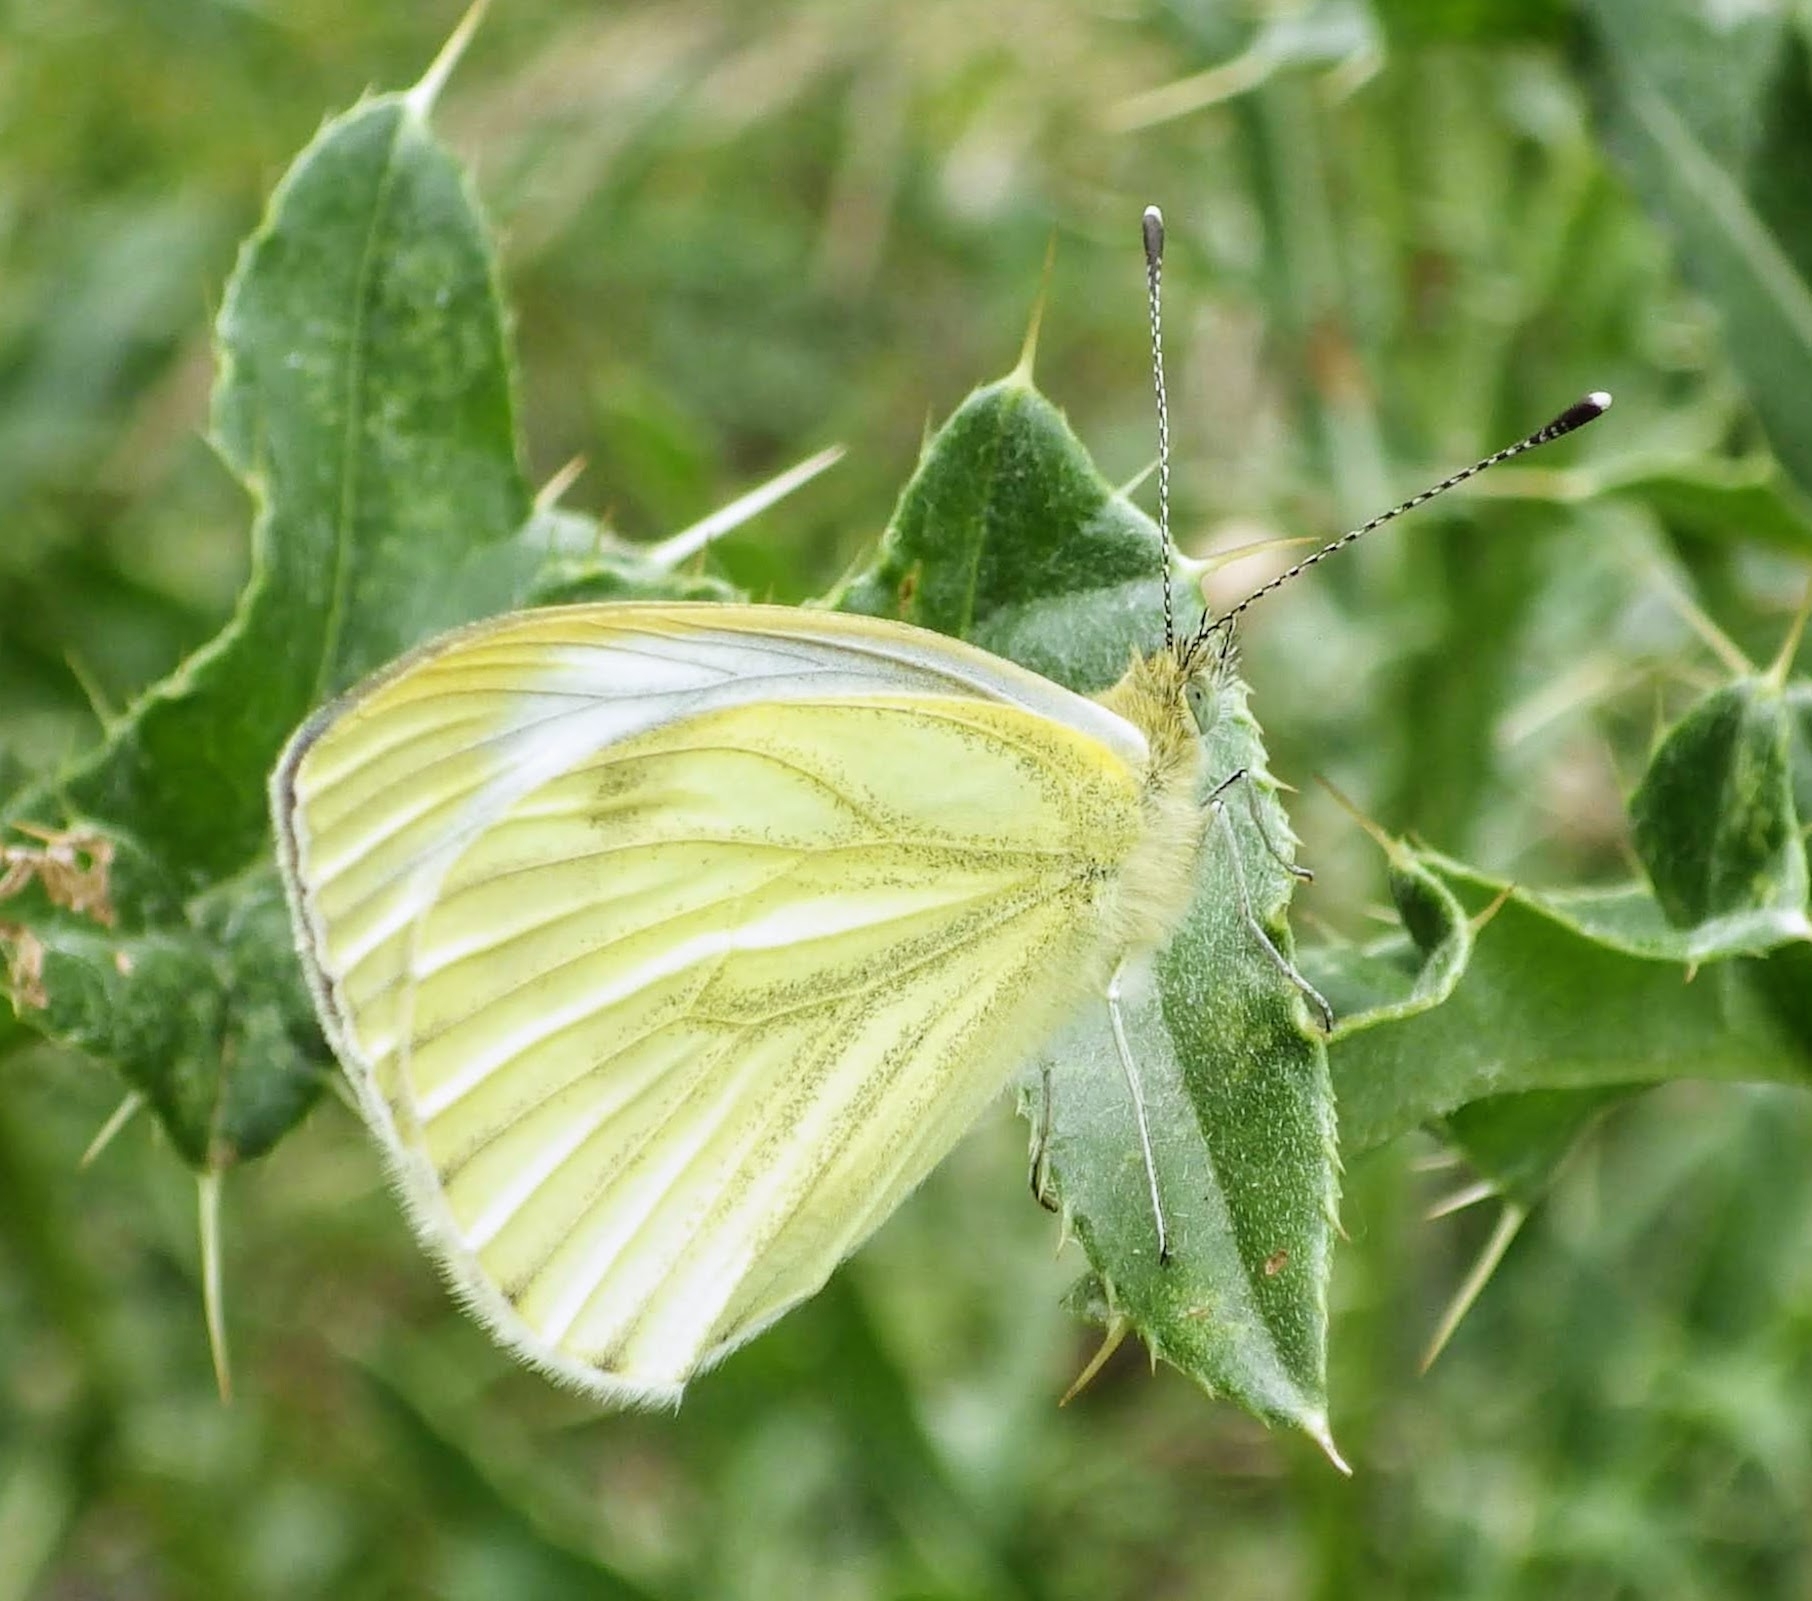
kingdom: Animalia
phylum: Arthropoda
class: Insecta
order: Lepidoptera
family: Pieridae
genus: Pieris
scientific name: Pieris napi
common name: Green-veined white
